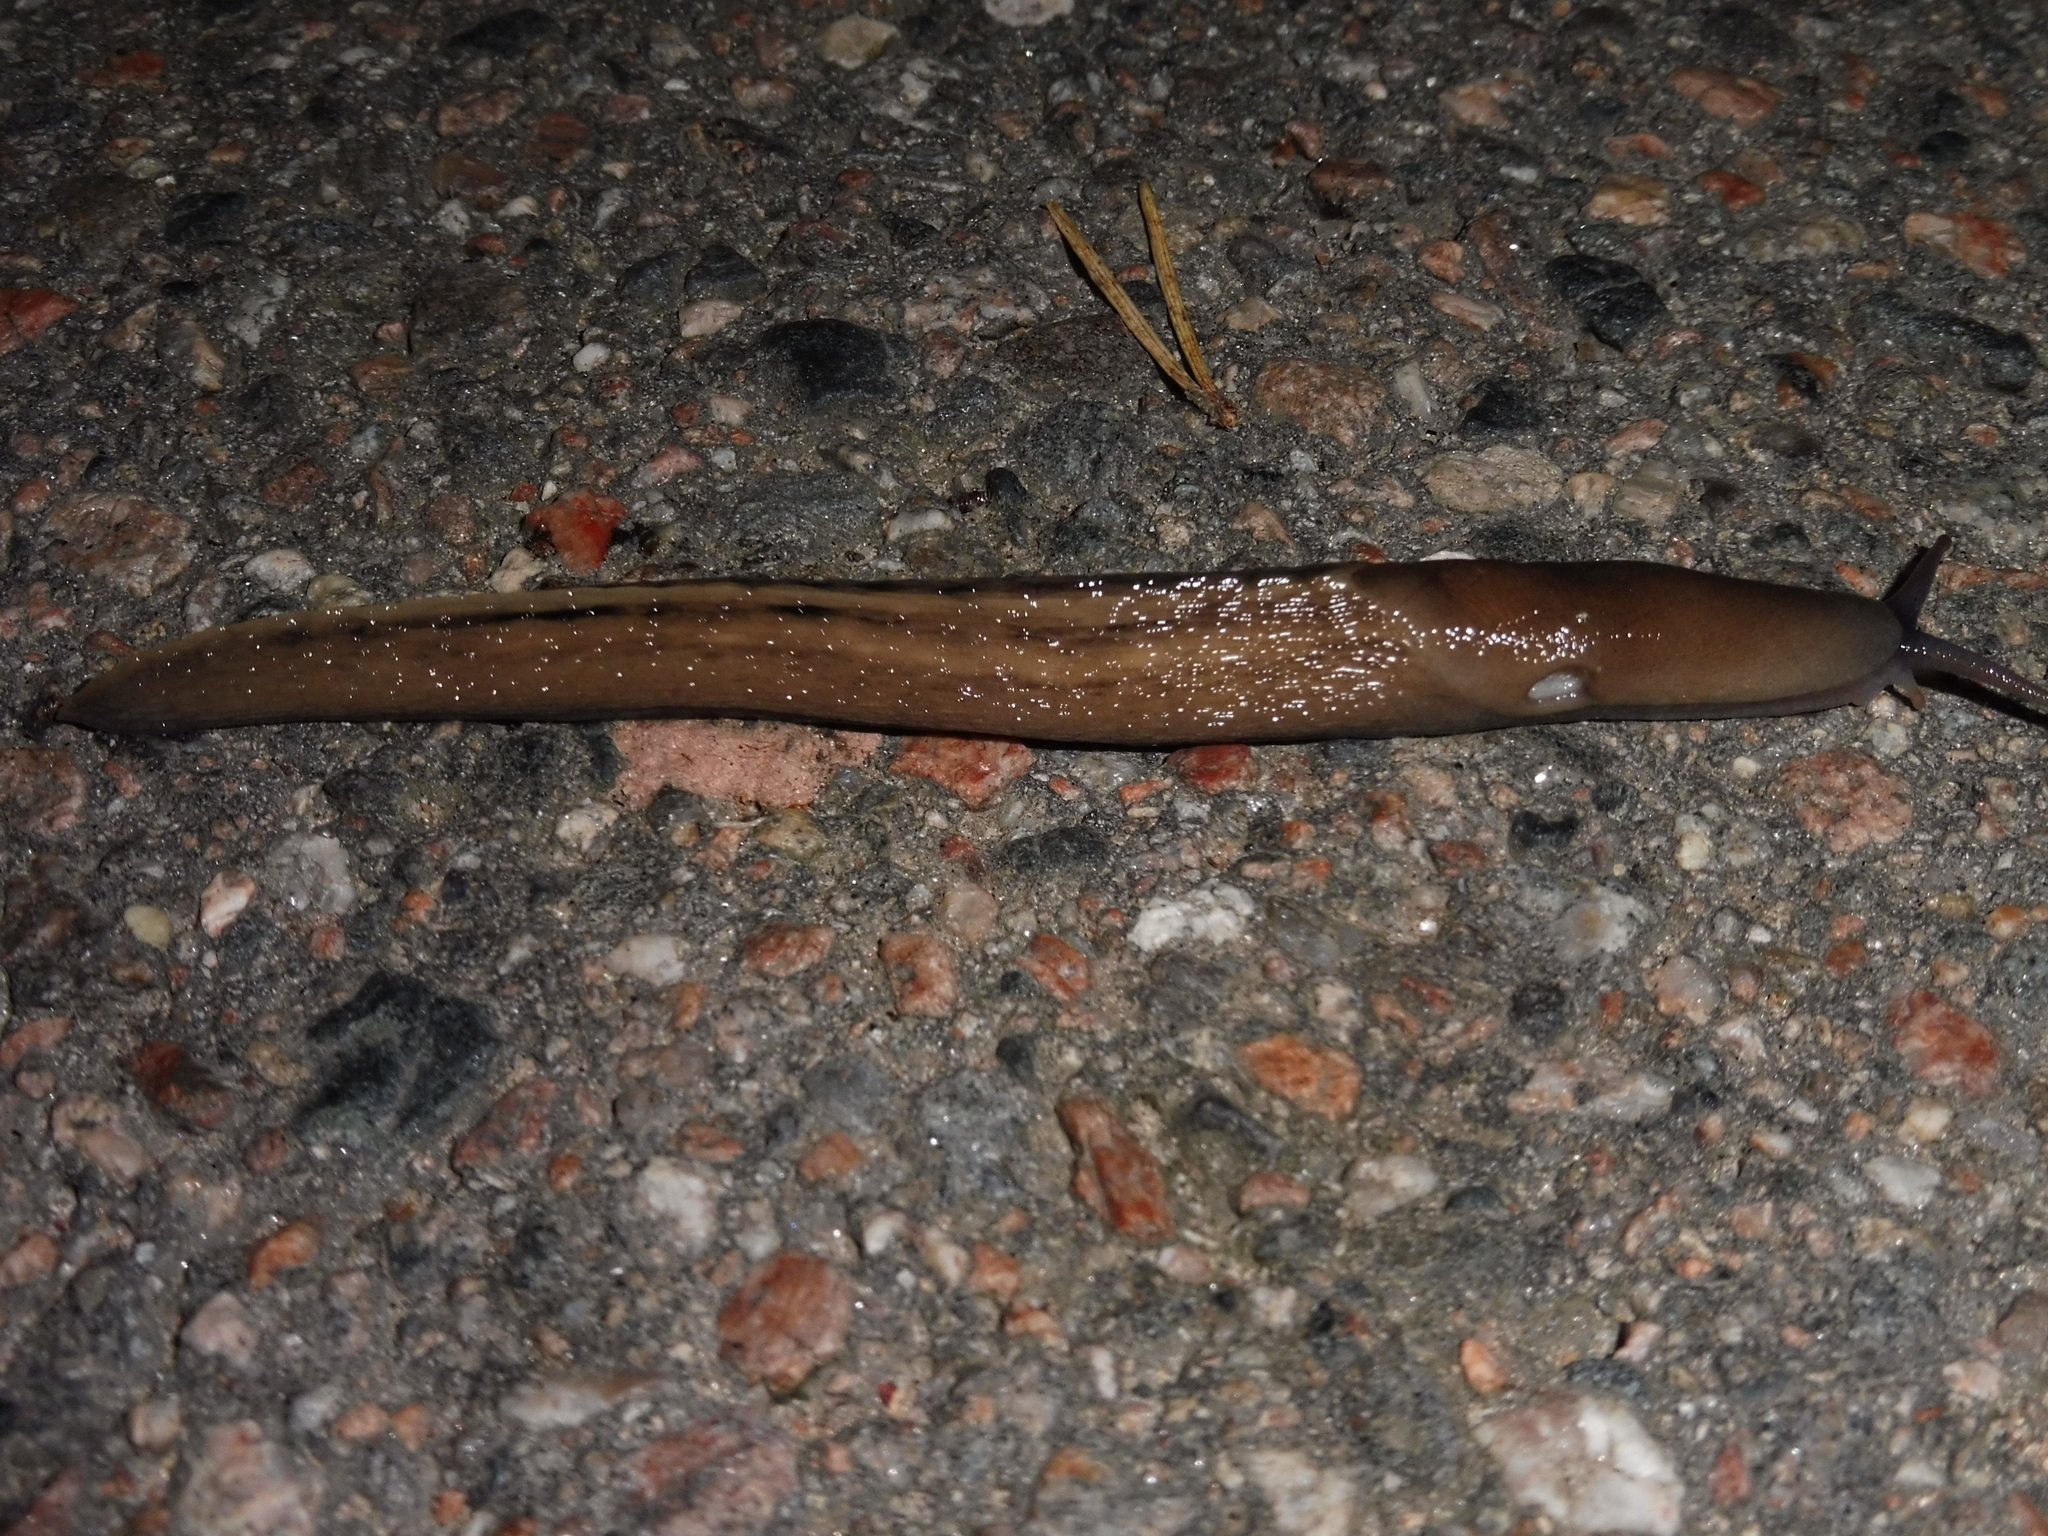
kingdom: Animalia
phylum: Mollusca
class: Gastropoda
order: Stylommatophora
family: Limacidae
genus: Limax
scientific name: Limax cinereoniger
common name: Ash-black slug
